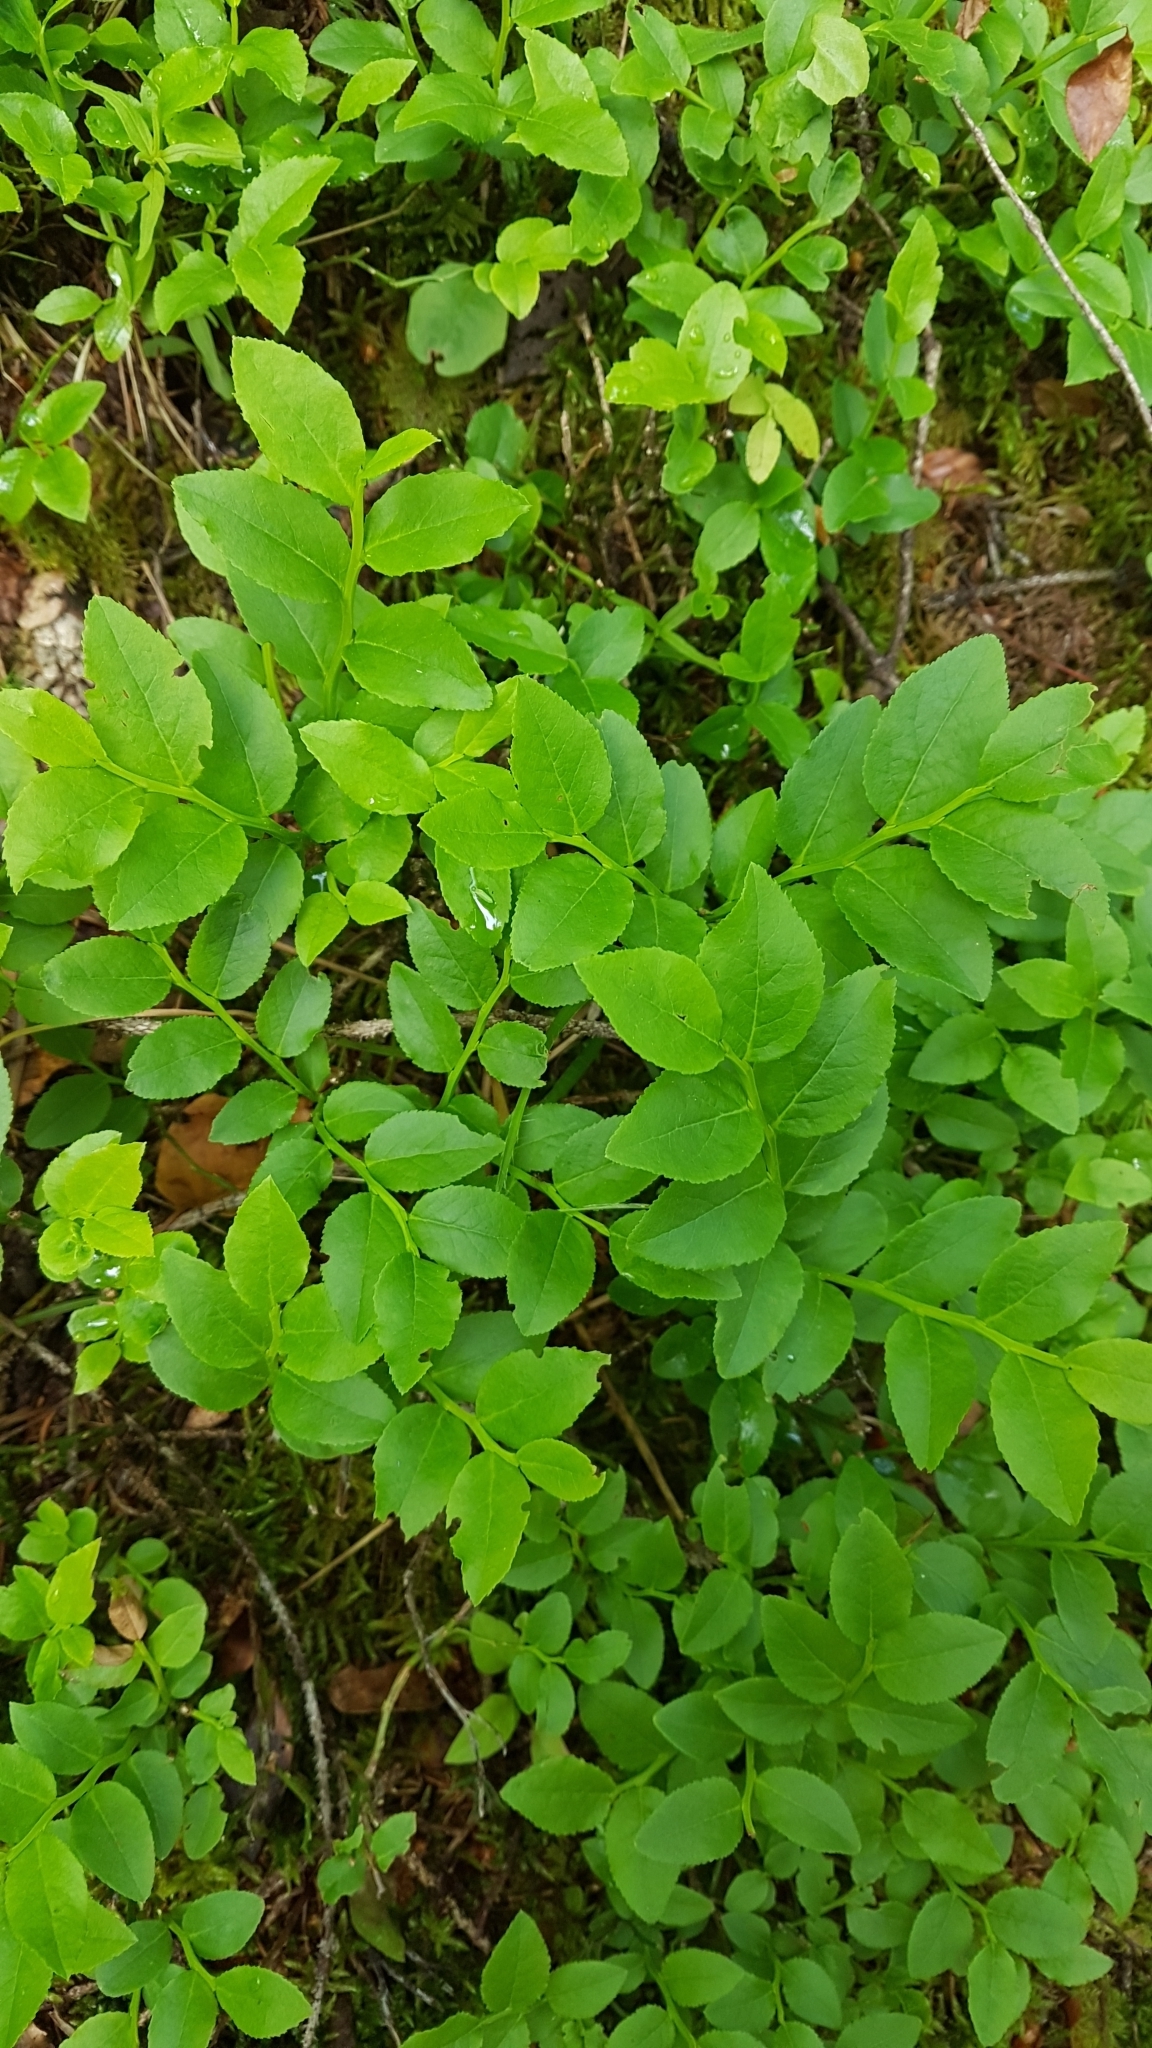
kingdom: Plantae
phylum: Tracheophyta
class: Magnoliopsida
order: Ericales
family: Ericaceae
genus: Vaccinium
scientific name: Vaccinium myrtillus
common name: Bilberry
